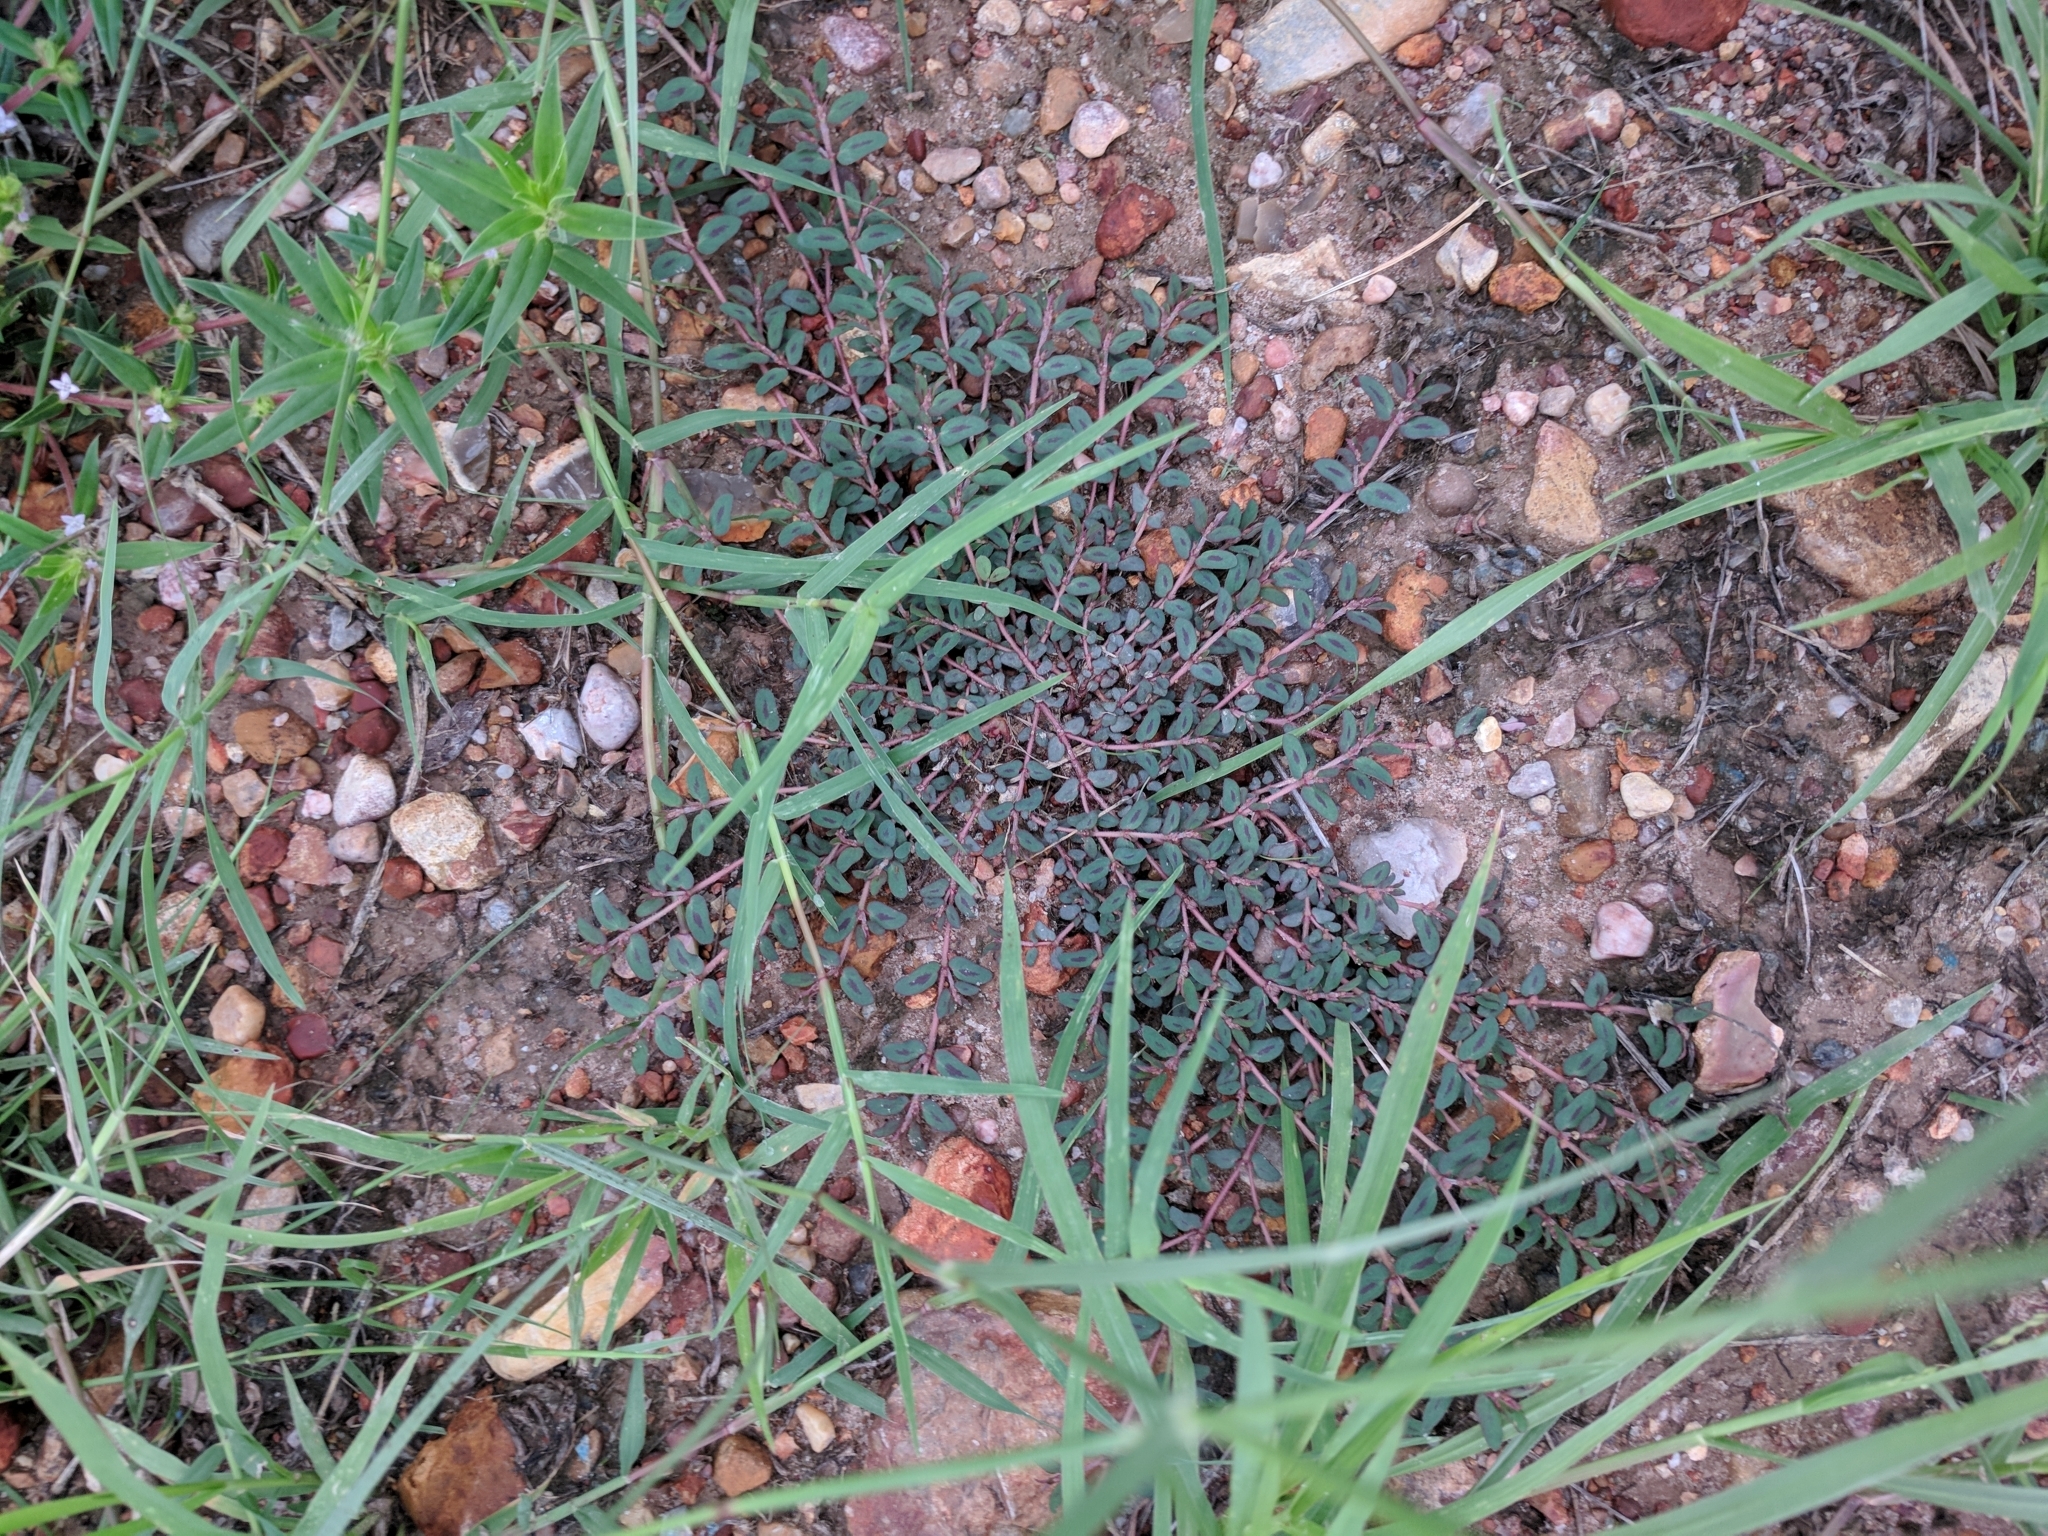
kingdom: Plantae
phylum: Tracheophyta
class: Magnoliopsida
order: Malpighiales
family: Euphorbiaceae
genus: Euphorbia
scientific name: Euphorbia maculata
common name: Spotted spurge
